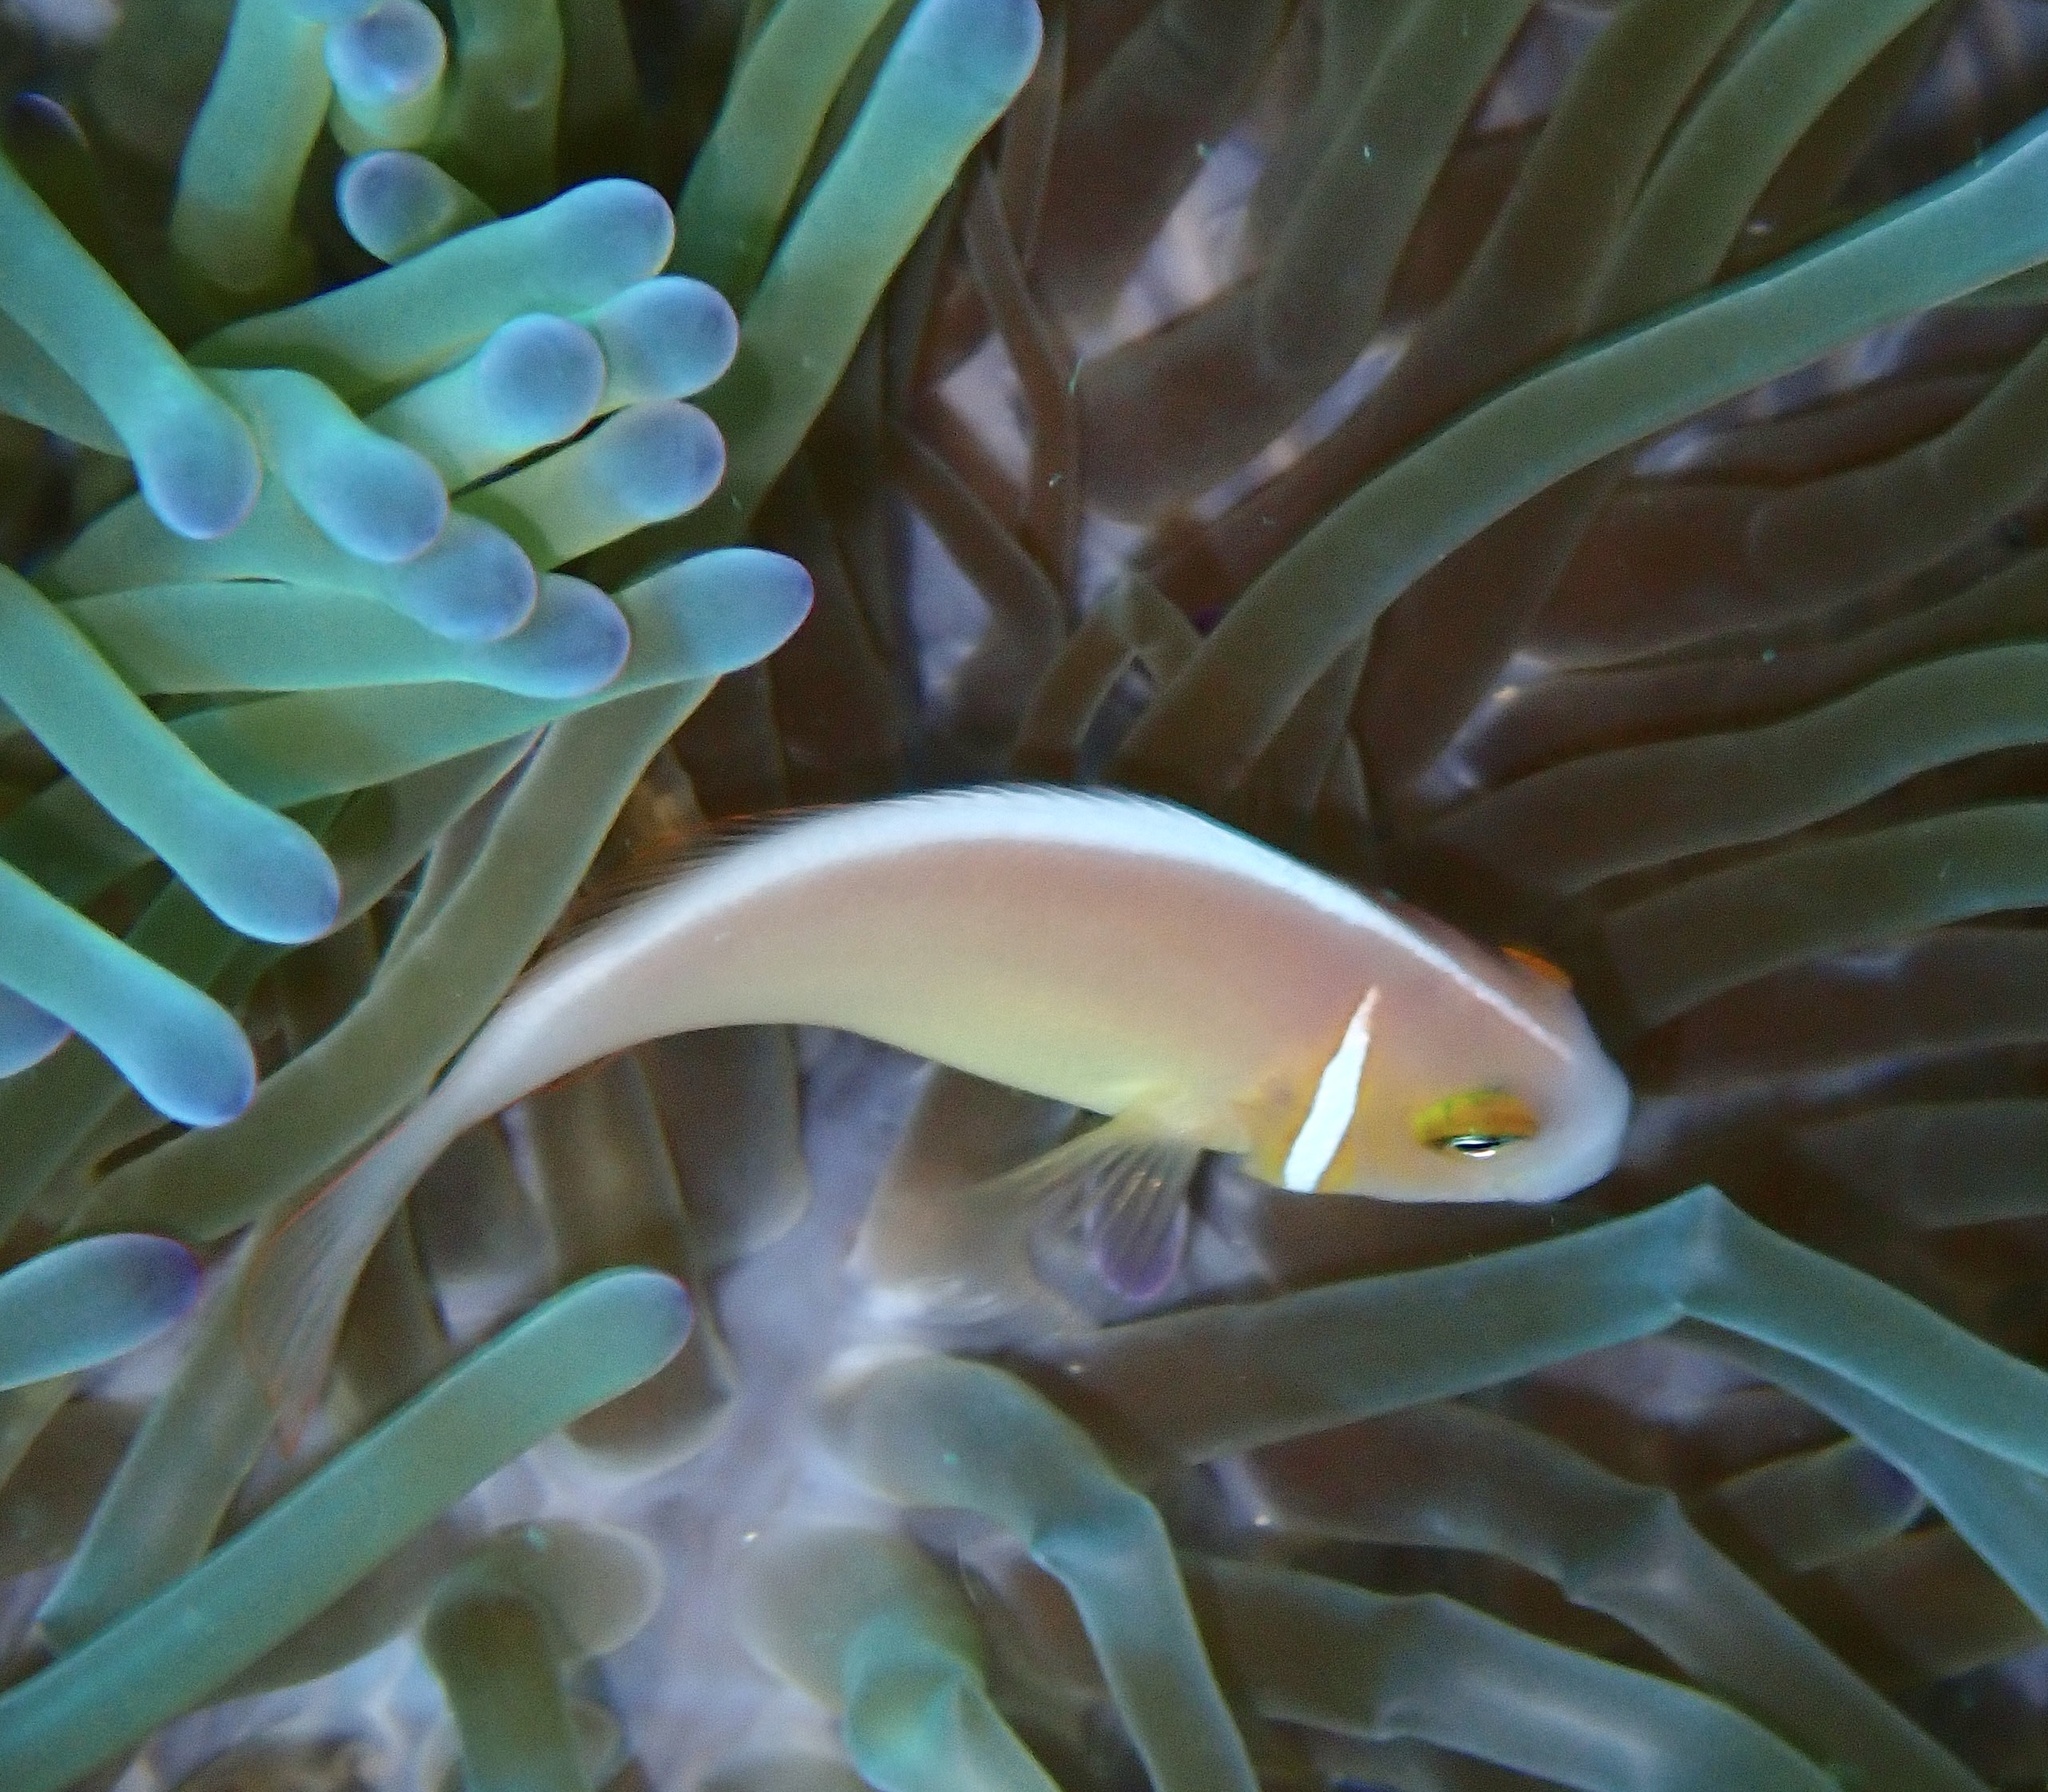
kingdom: Animalia
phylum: Chordata
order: Perciformes
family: Pomacentridae
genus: Amphiprion
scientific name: Amphiprion perideraion
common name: Pink anemonefish
